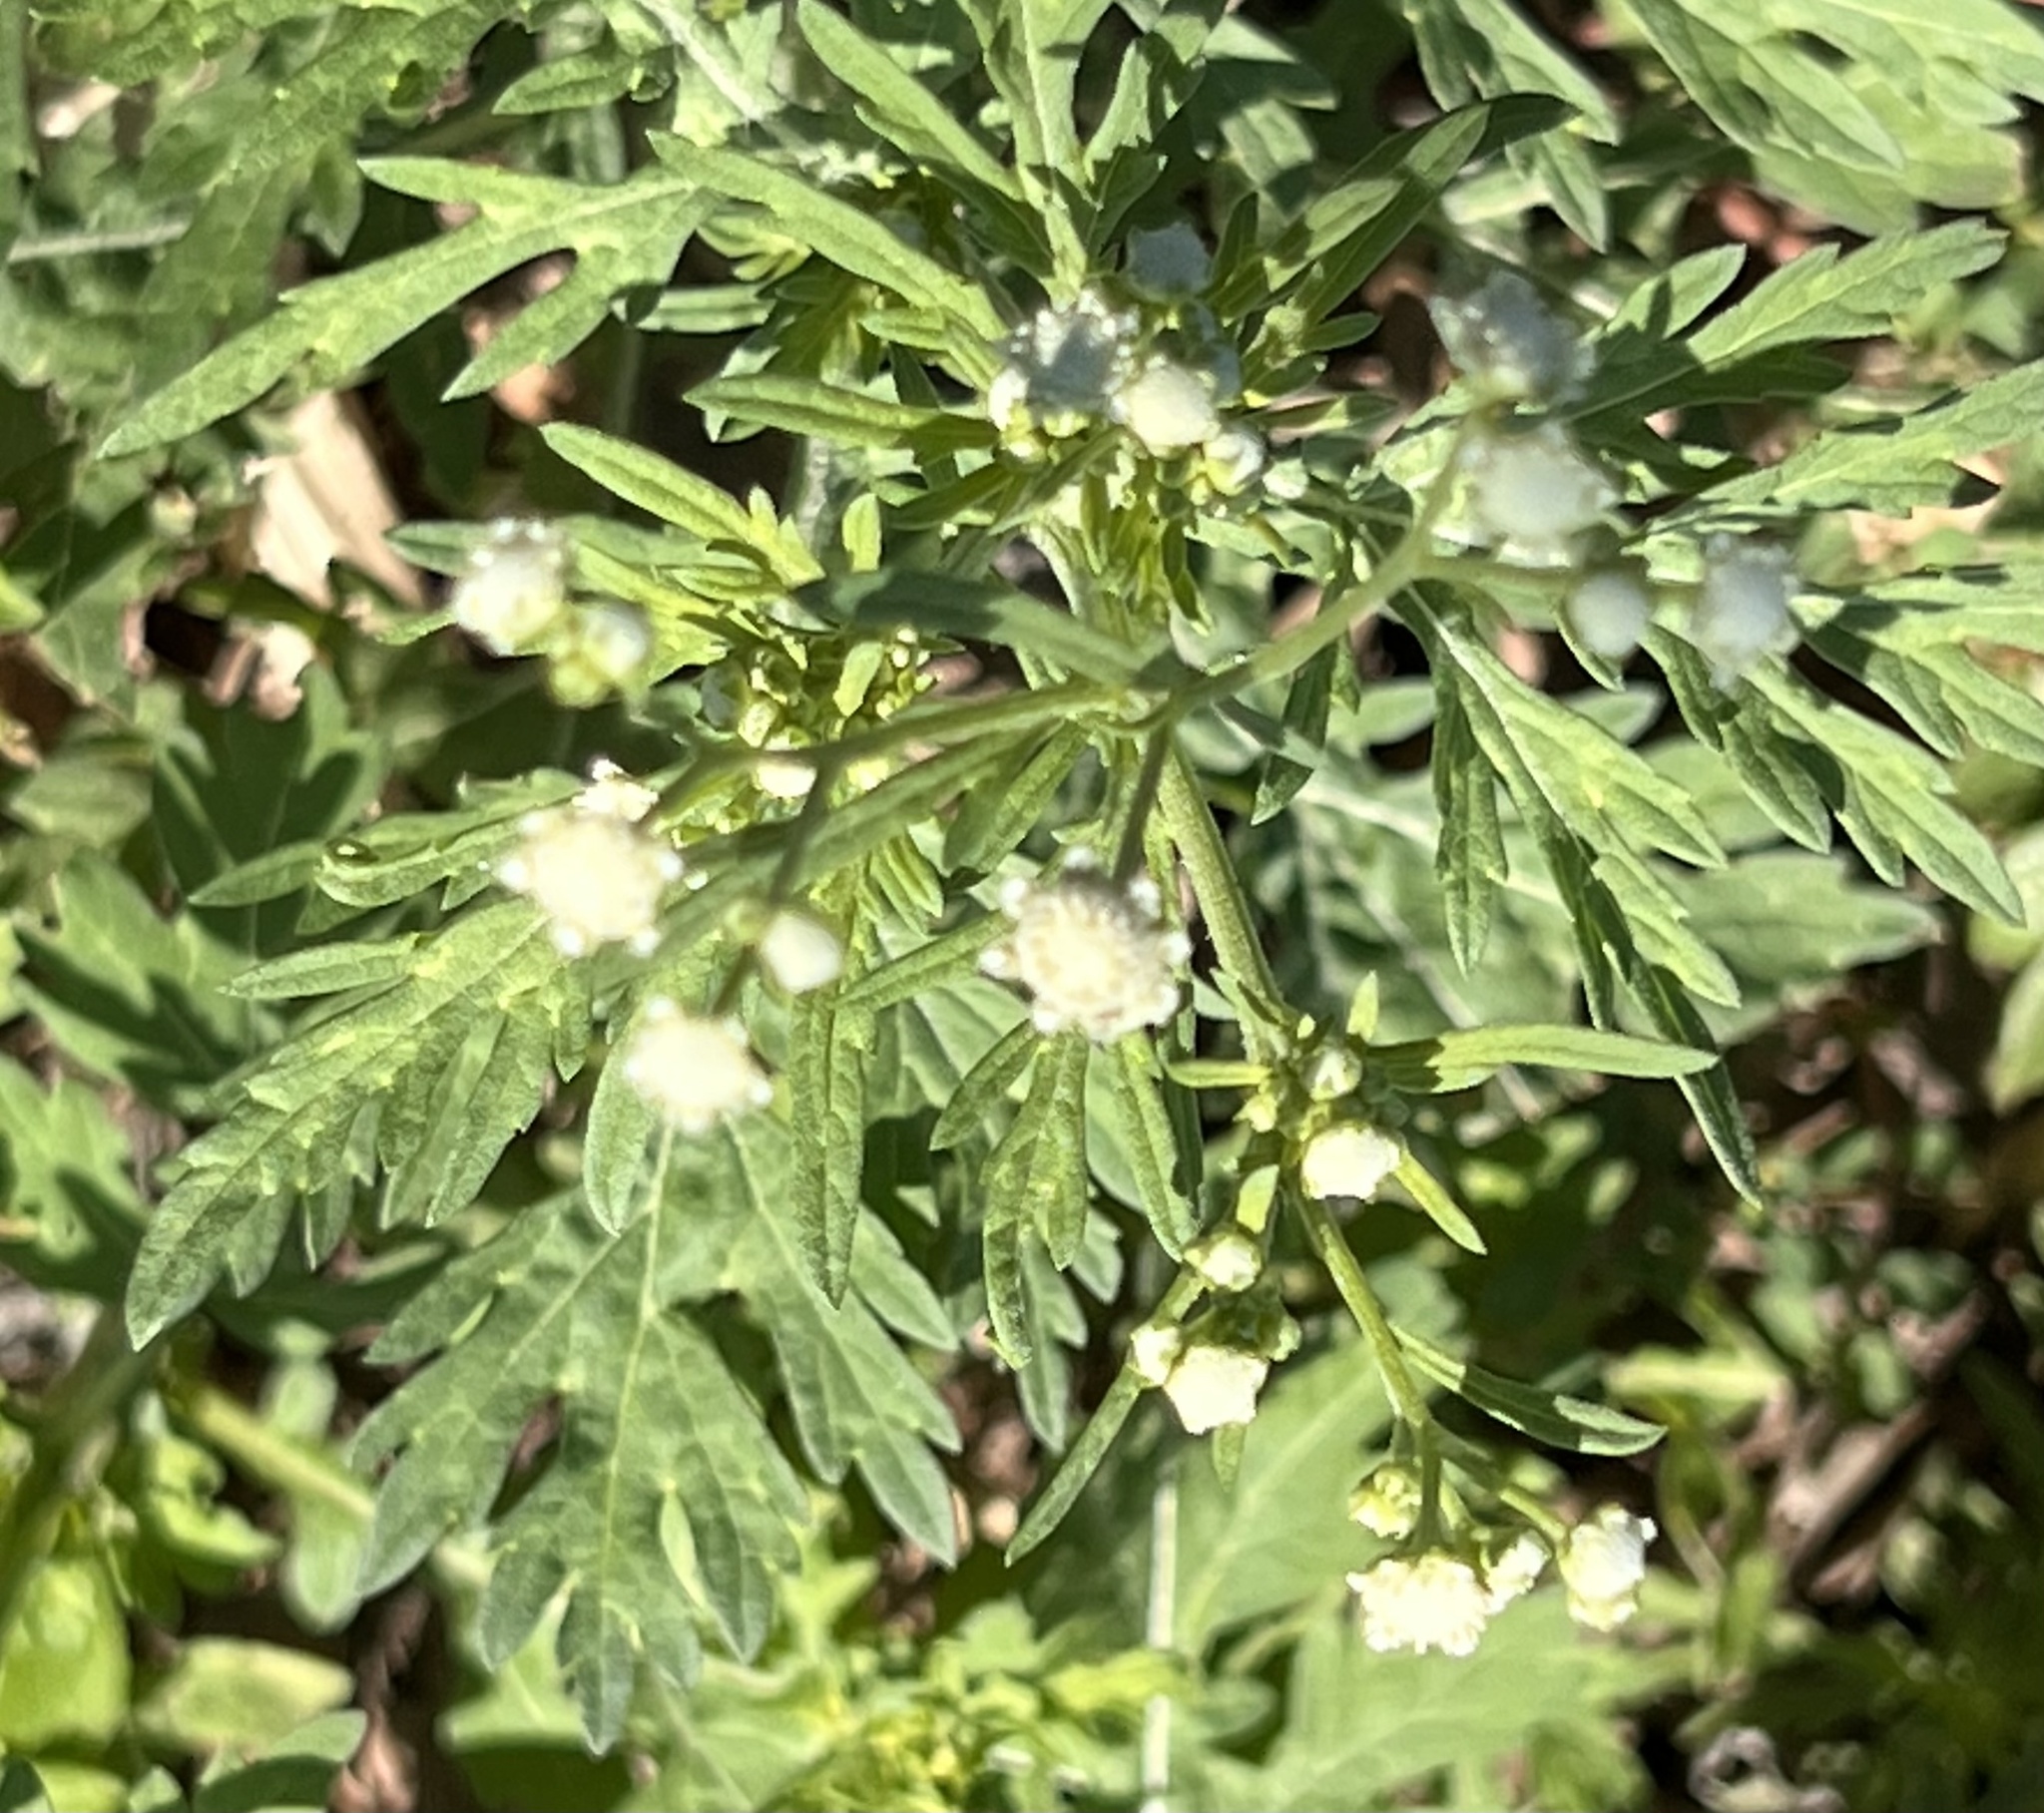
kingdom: Plantae
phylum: Tracheophyta
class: Magnoliopsida
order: Asterales
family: Asteraceae
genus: Parthenium
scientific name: Parthenium hysterophorus
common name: Santa maria feverfew
